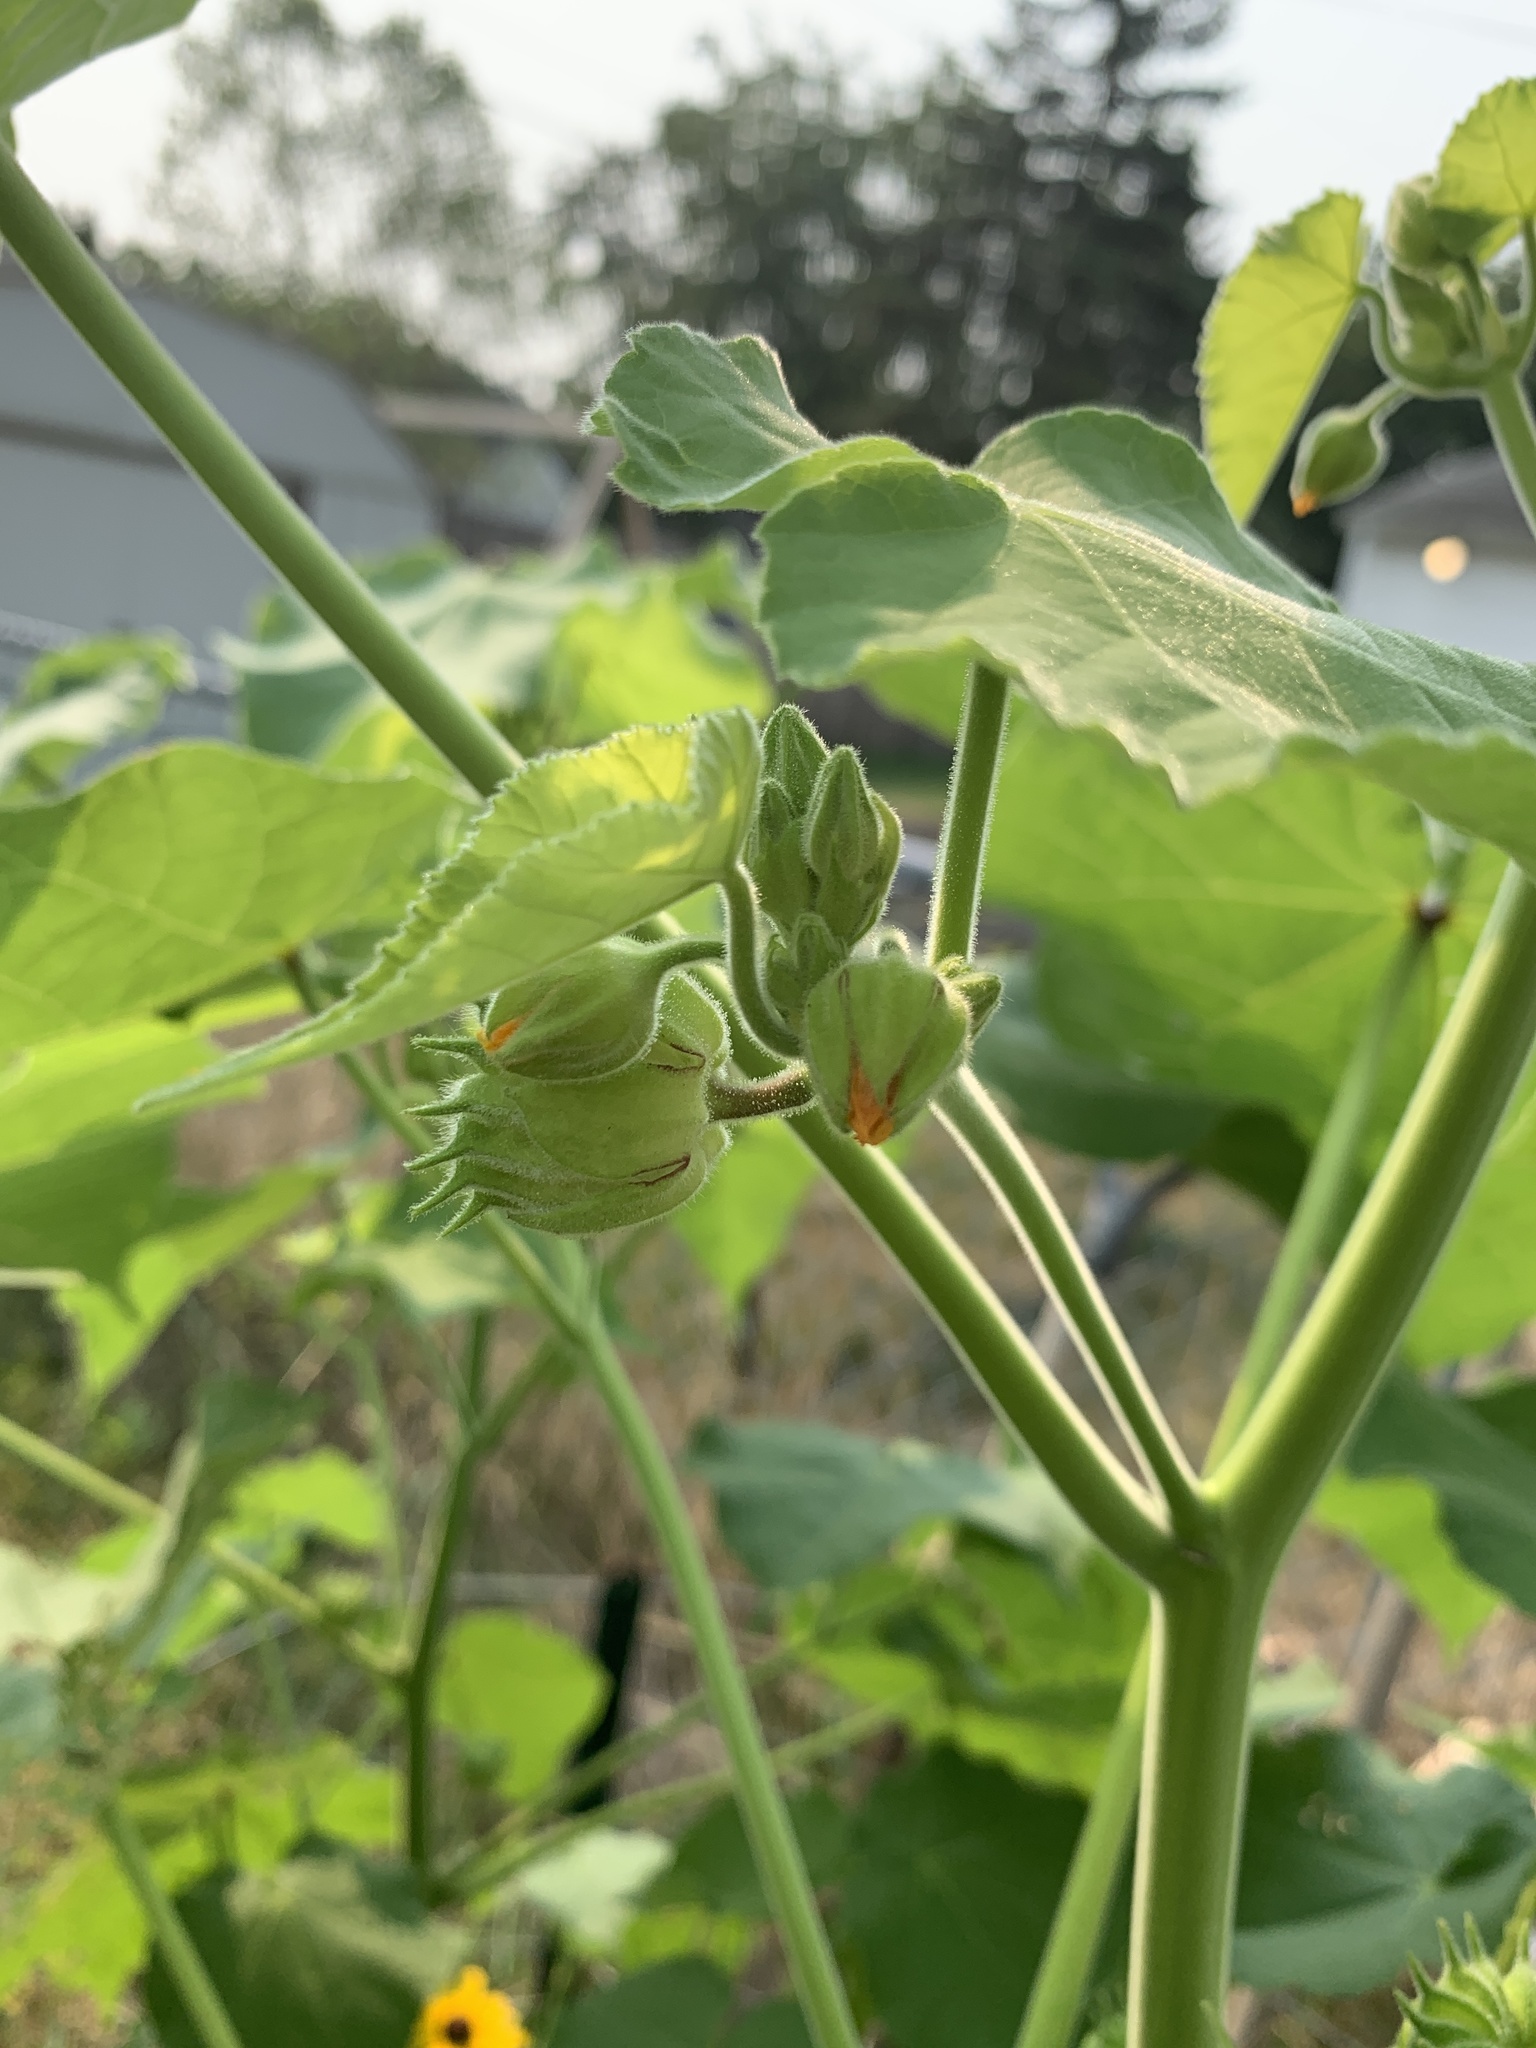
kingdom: Plantae
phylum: Tracheophyta
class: Magnoliopsida
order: Malvales
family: Malvaceae
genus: Abutilon
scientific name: Abutilon theophrasti
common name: Velvetleaf
